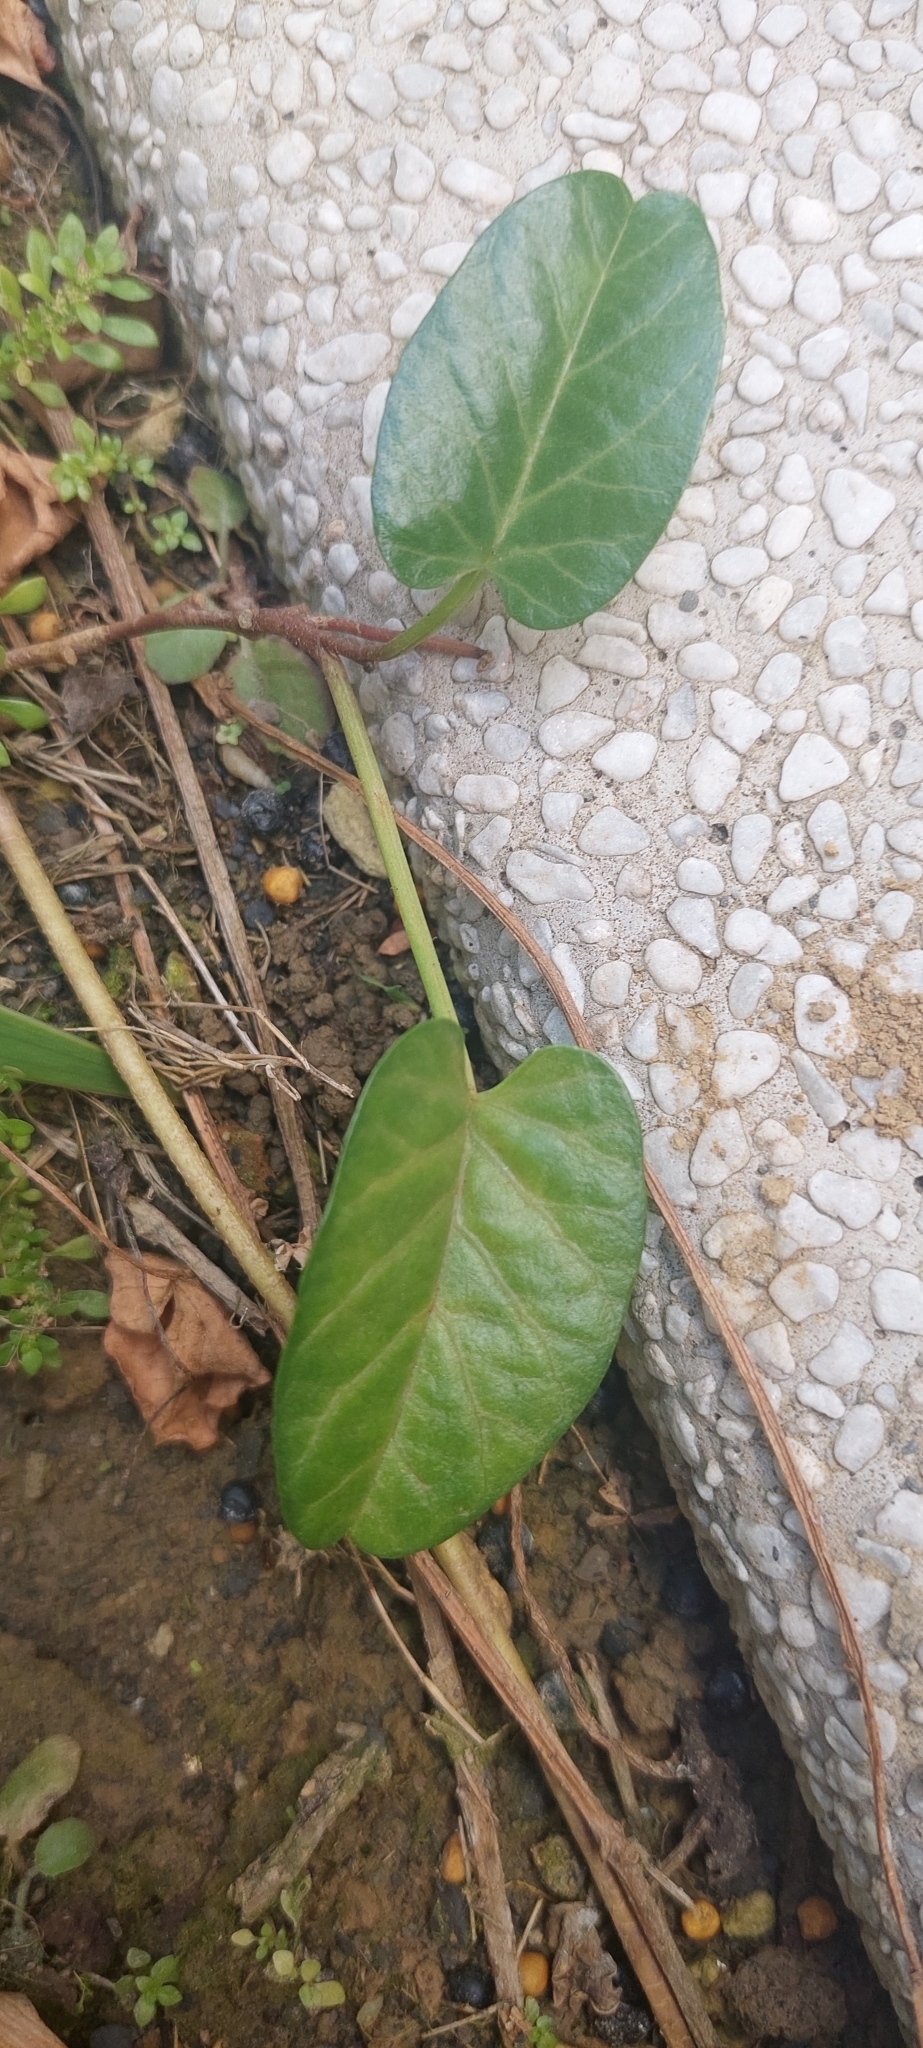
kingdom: Plantae
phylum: Tracheophyta
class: Magnoliopsida
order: Solanales
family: Convolvulaceae
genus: Ipomoea
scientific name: Ipomoea imperati
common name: Fiddle-leaf morning-glory
